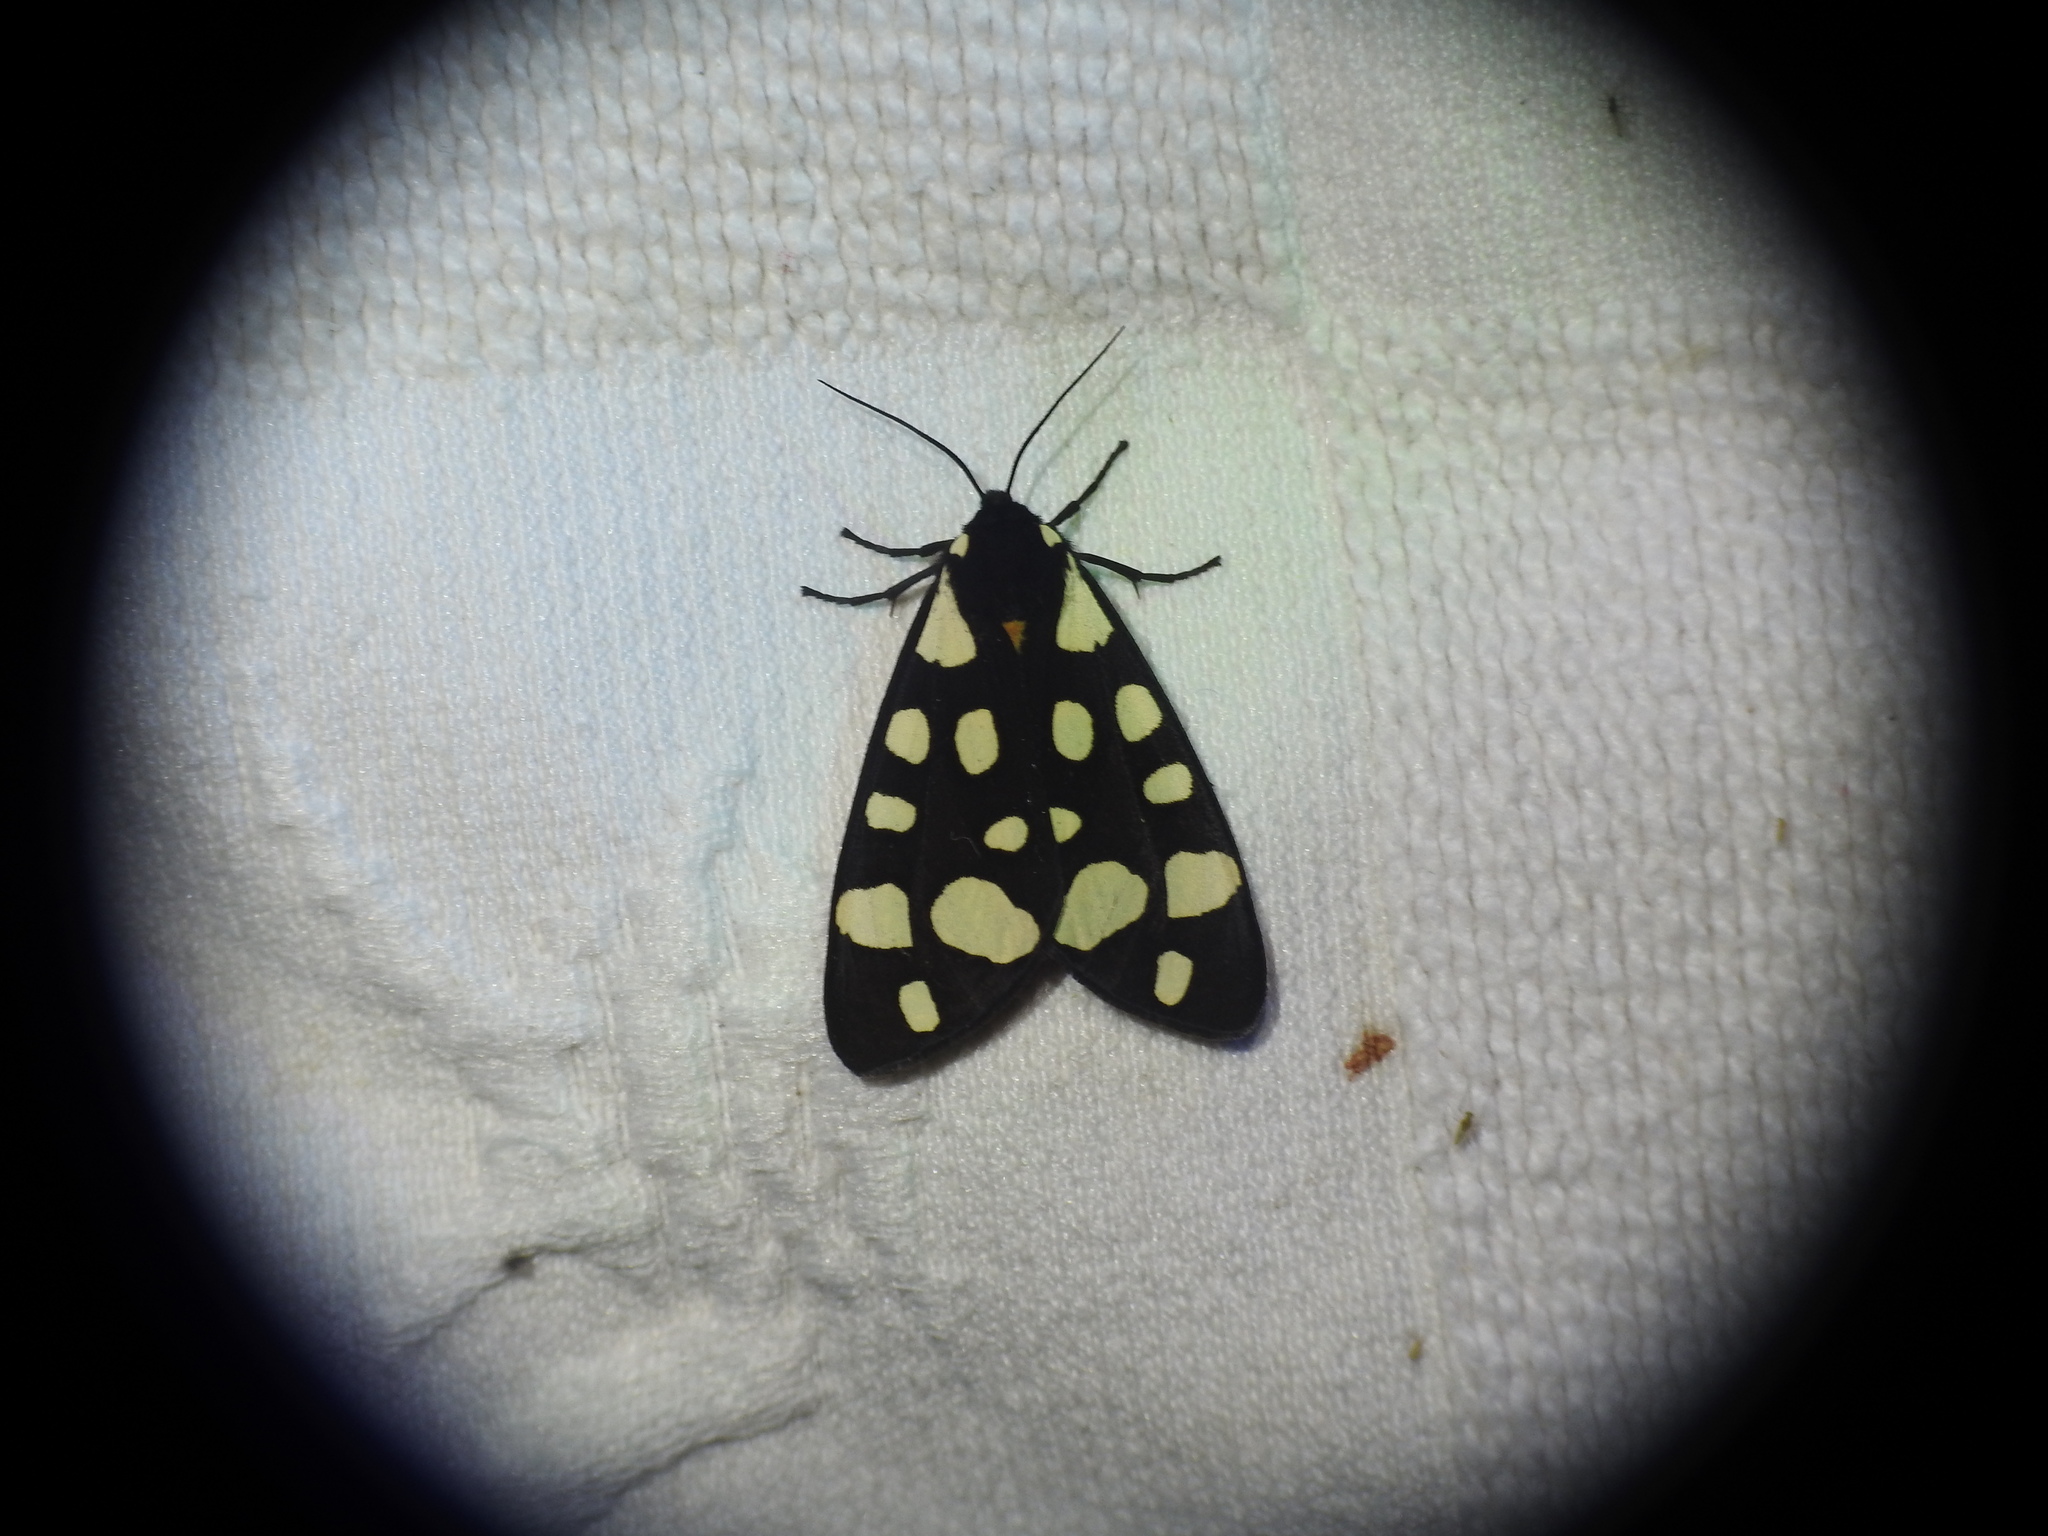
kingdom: Animalia
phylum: Arthropoda
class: Insecta
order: Lepidoptera
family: Erebidae
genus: Epicallia
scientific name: Epicallia villica
